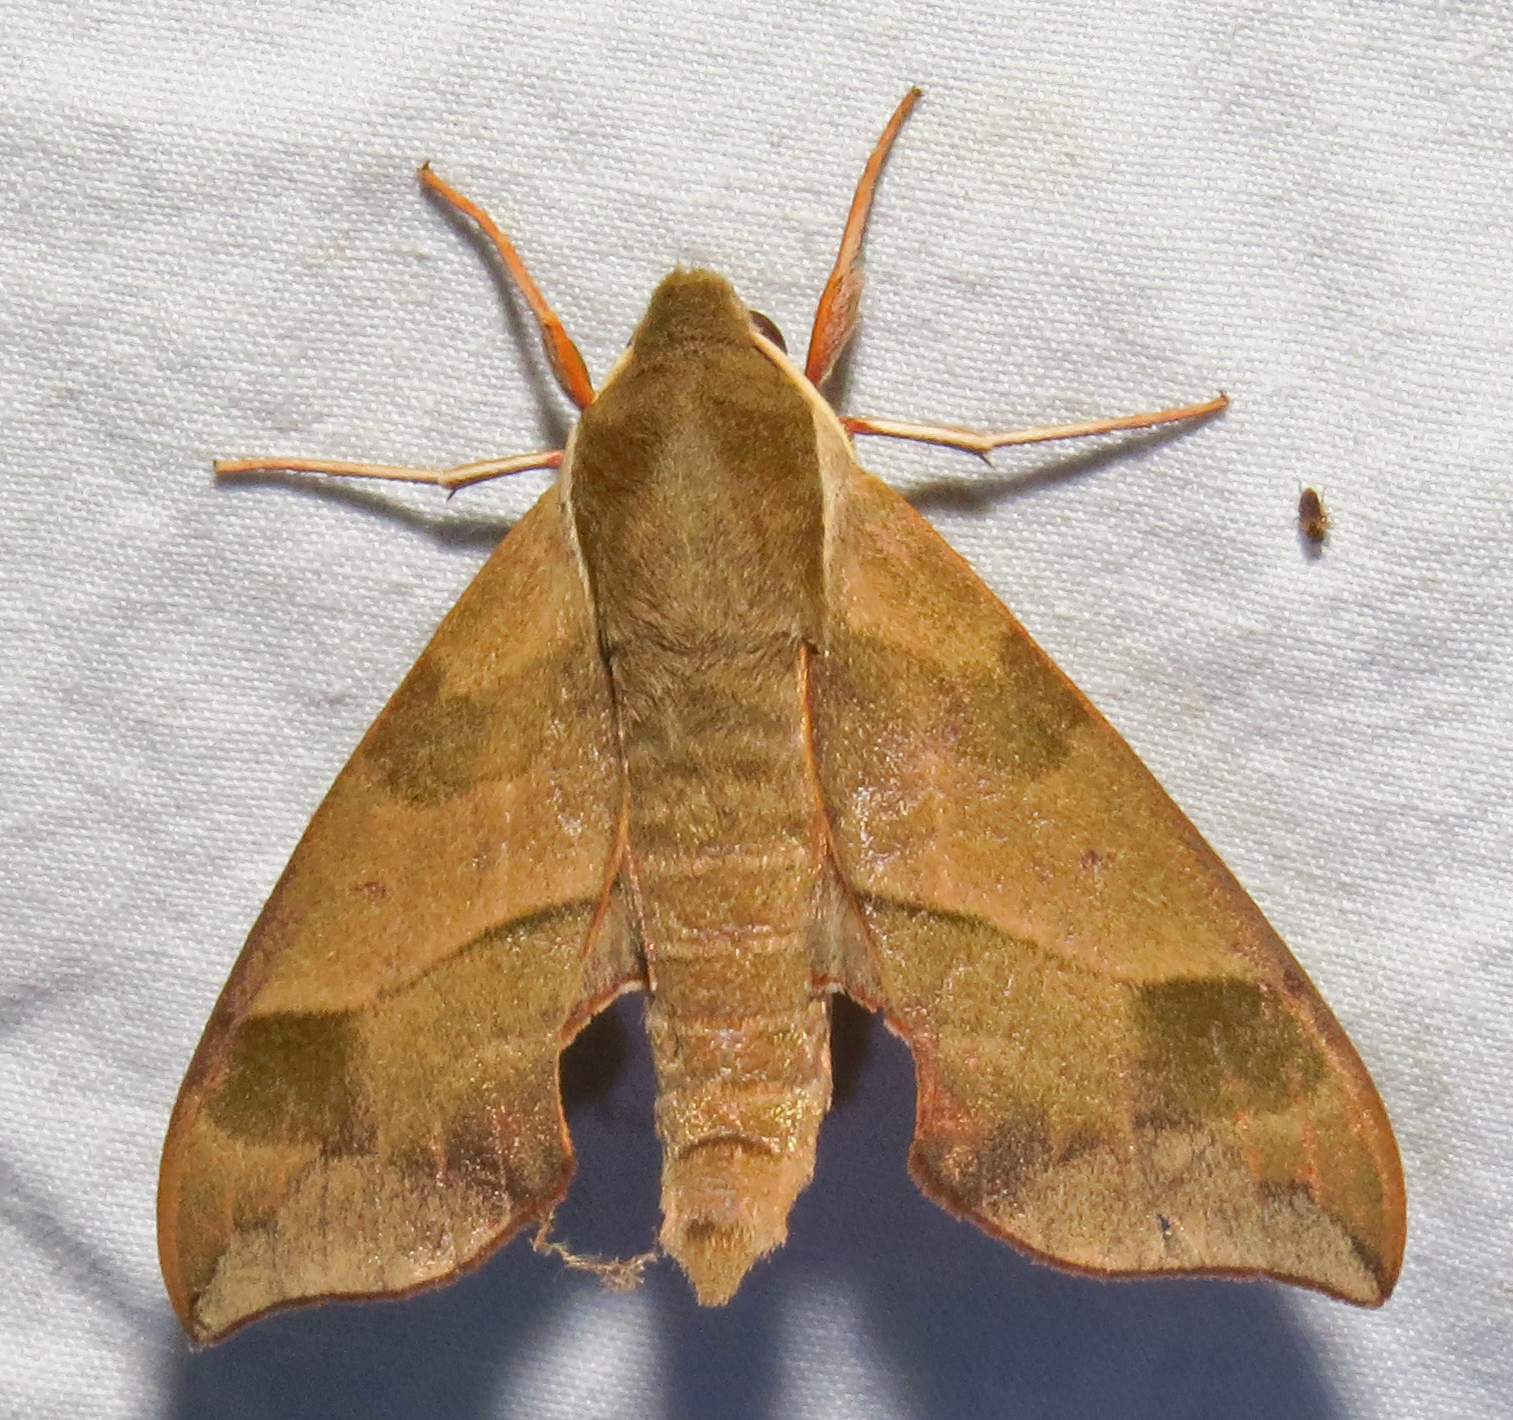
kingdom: Animalia
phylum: Arthropoda
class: Insecta
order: Lepidoptera
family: Sphingidae
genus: Darapsa
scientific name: Darapsa myron
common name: Hog sphinx
